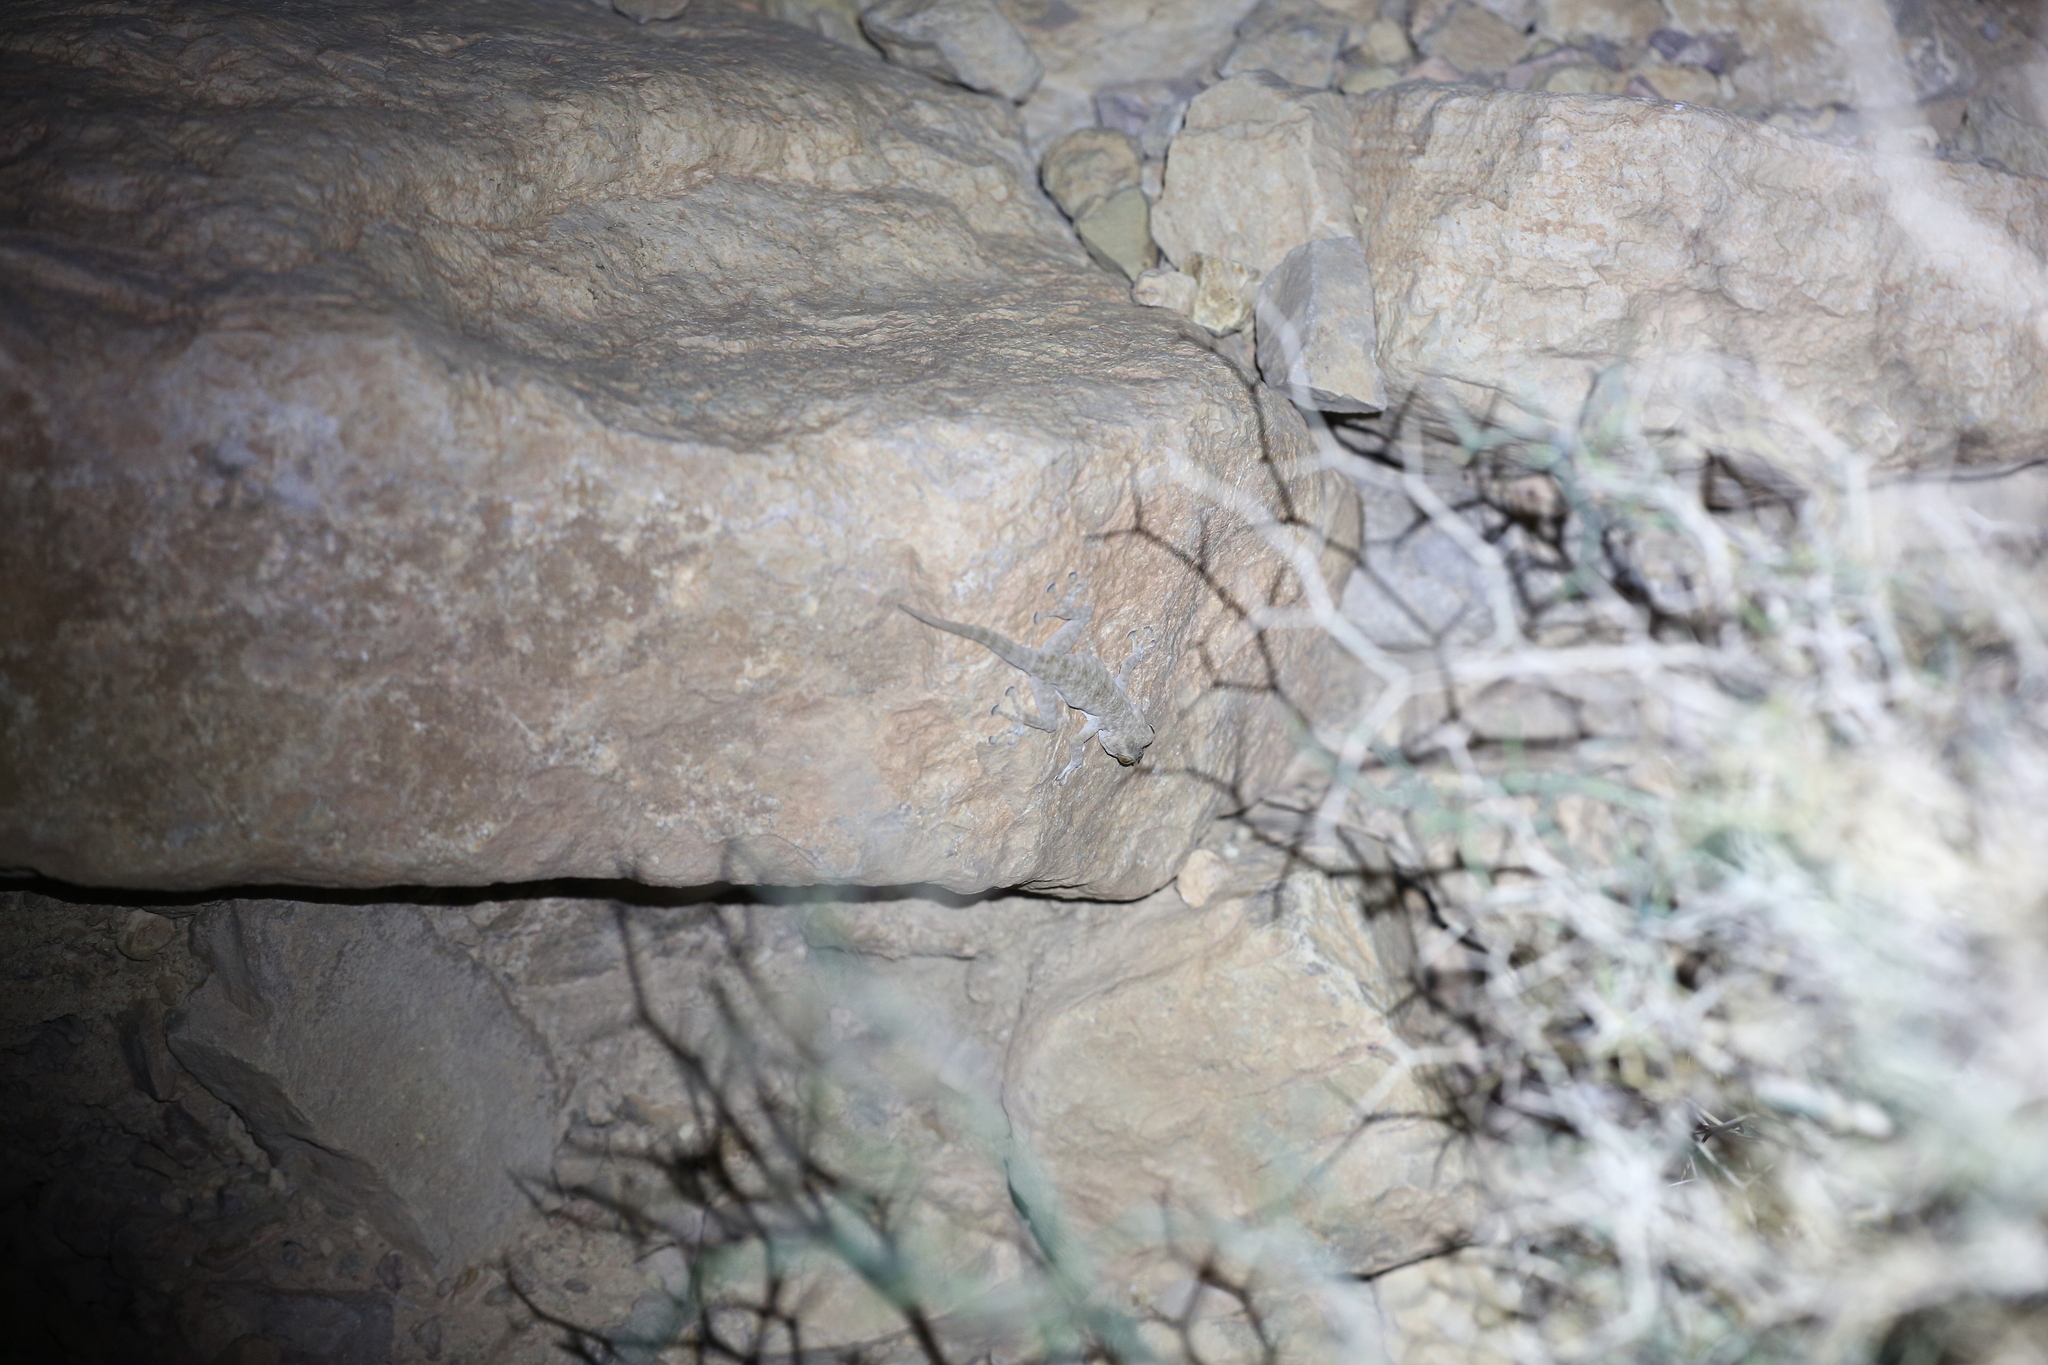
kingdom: Animalia
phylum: Chordata
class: Squamata
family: Phyllodactylidae
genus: Ptyodactylus
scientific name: Ptyodactylus oudrii
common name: Algerian fan-fingered gecko
